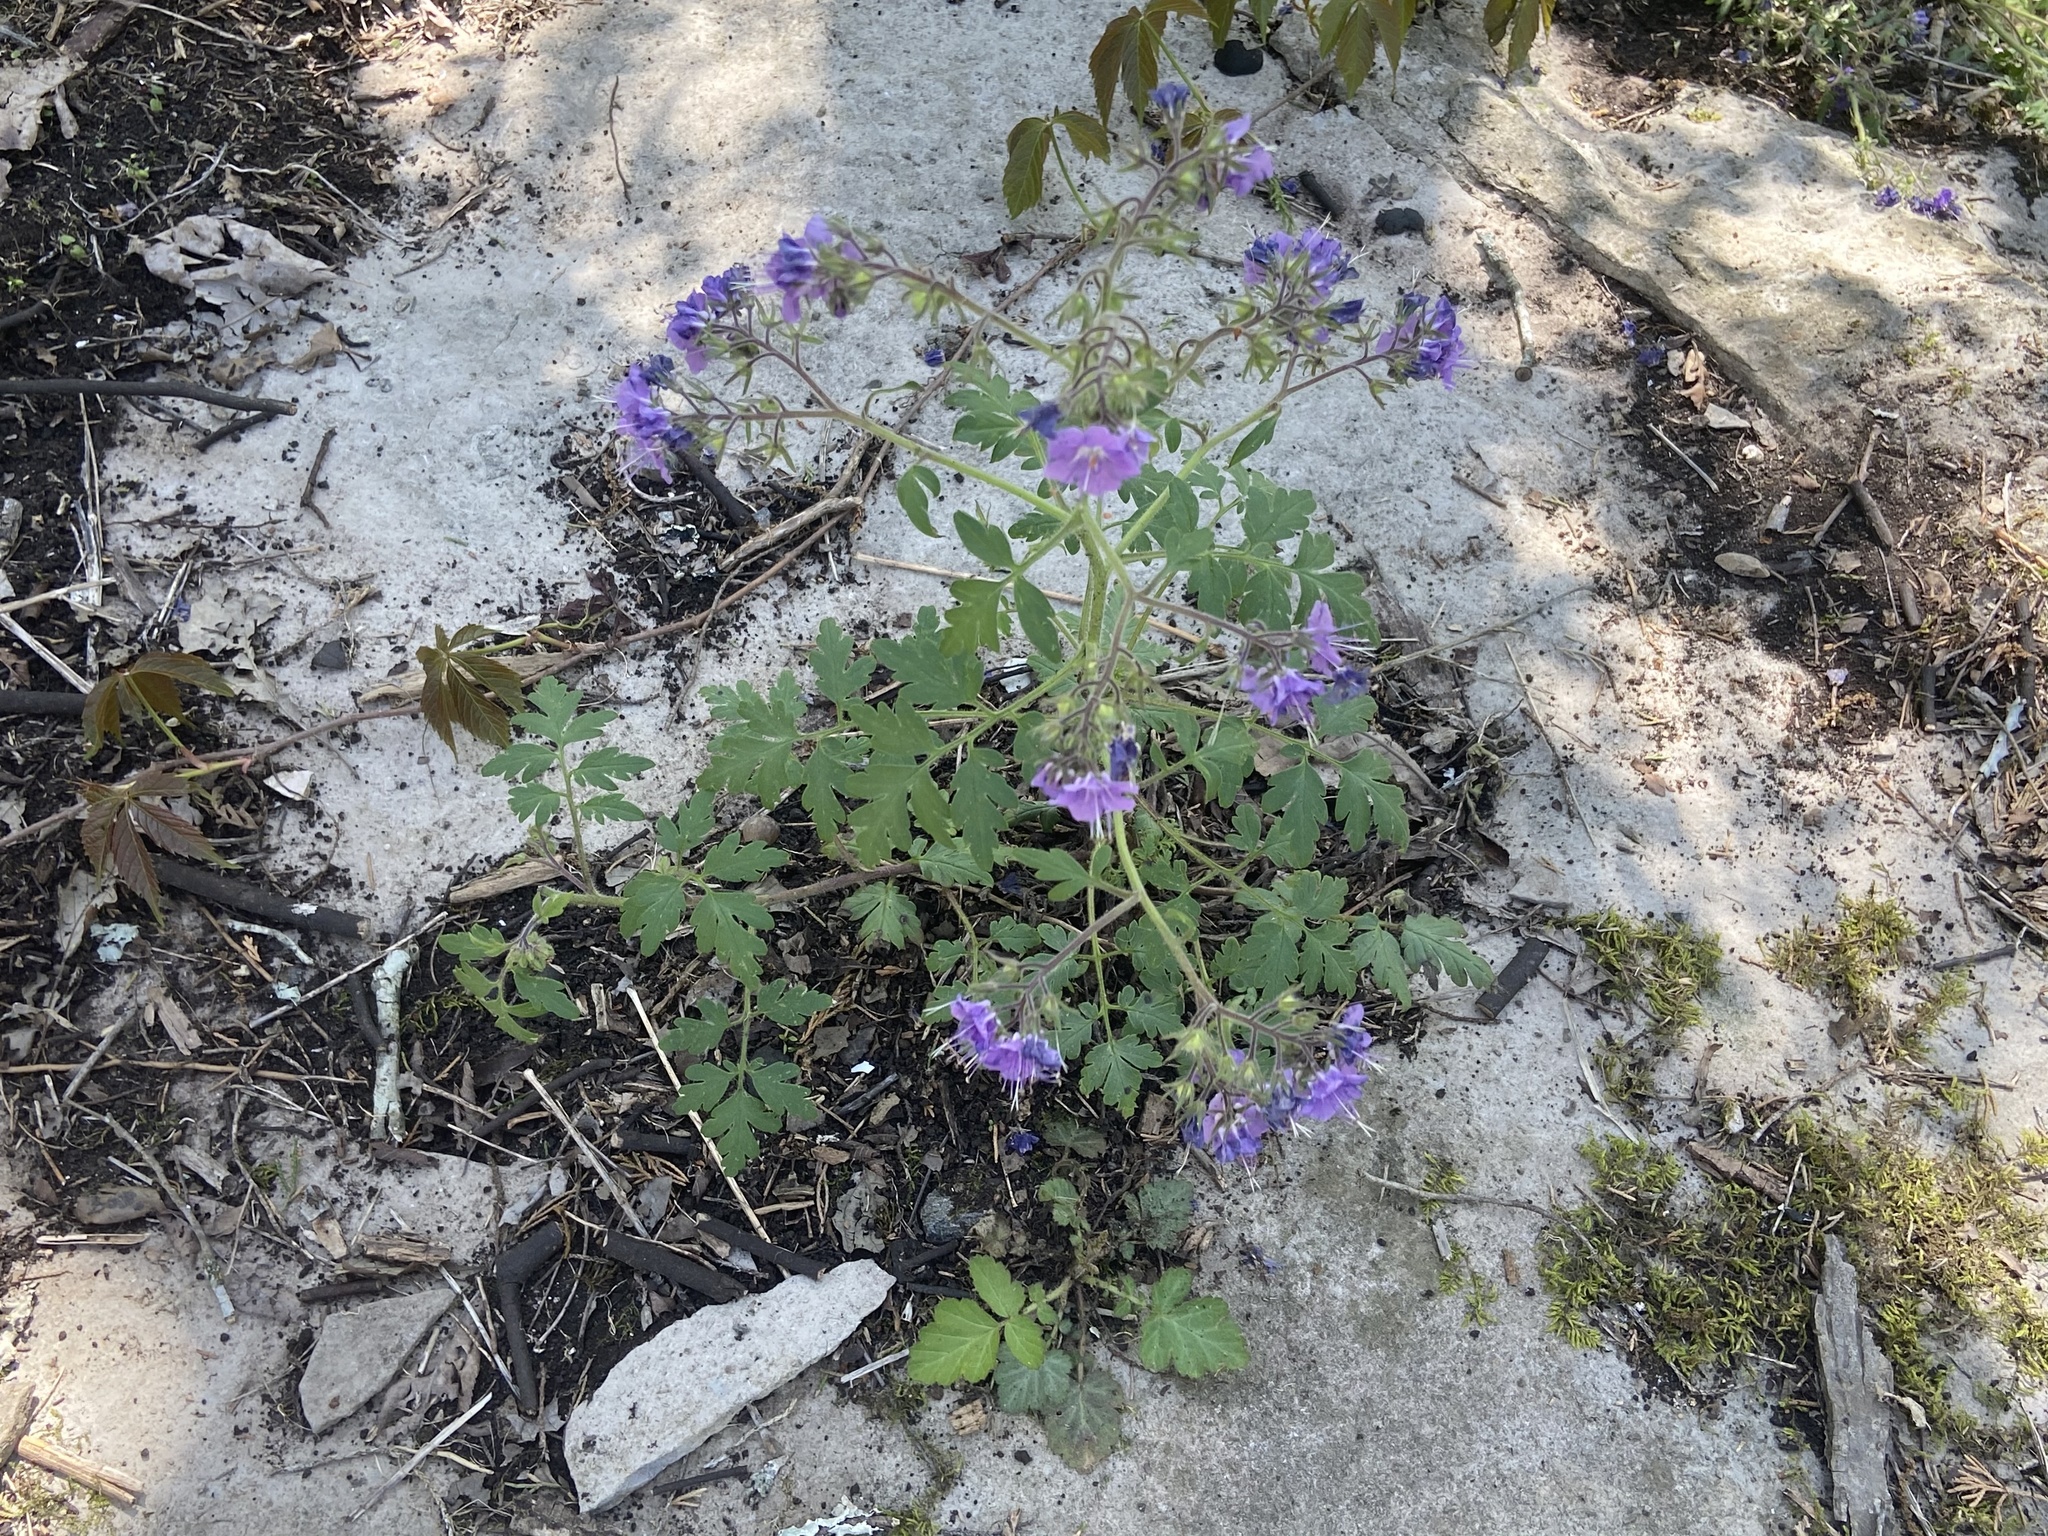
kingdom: Plantae
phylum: Tracheophyta
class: Magnoliopsida
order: Boraginales
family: Hydrophyllaceae
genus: Phacelia
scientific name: Phacelia bipinnatifida
